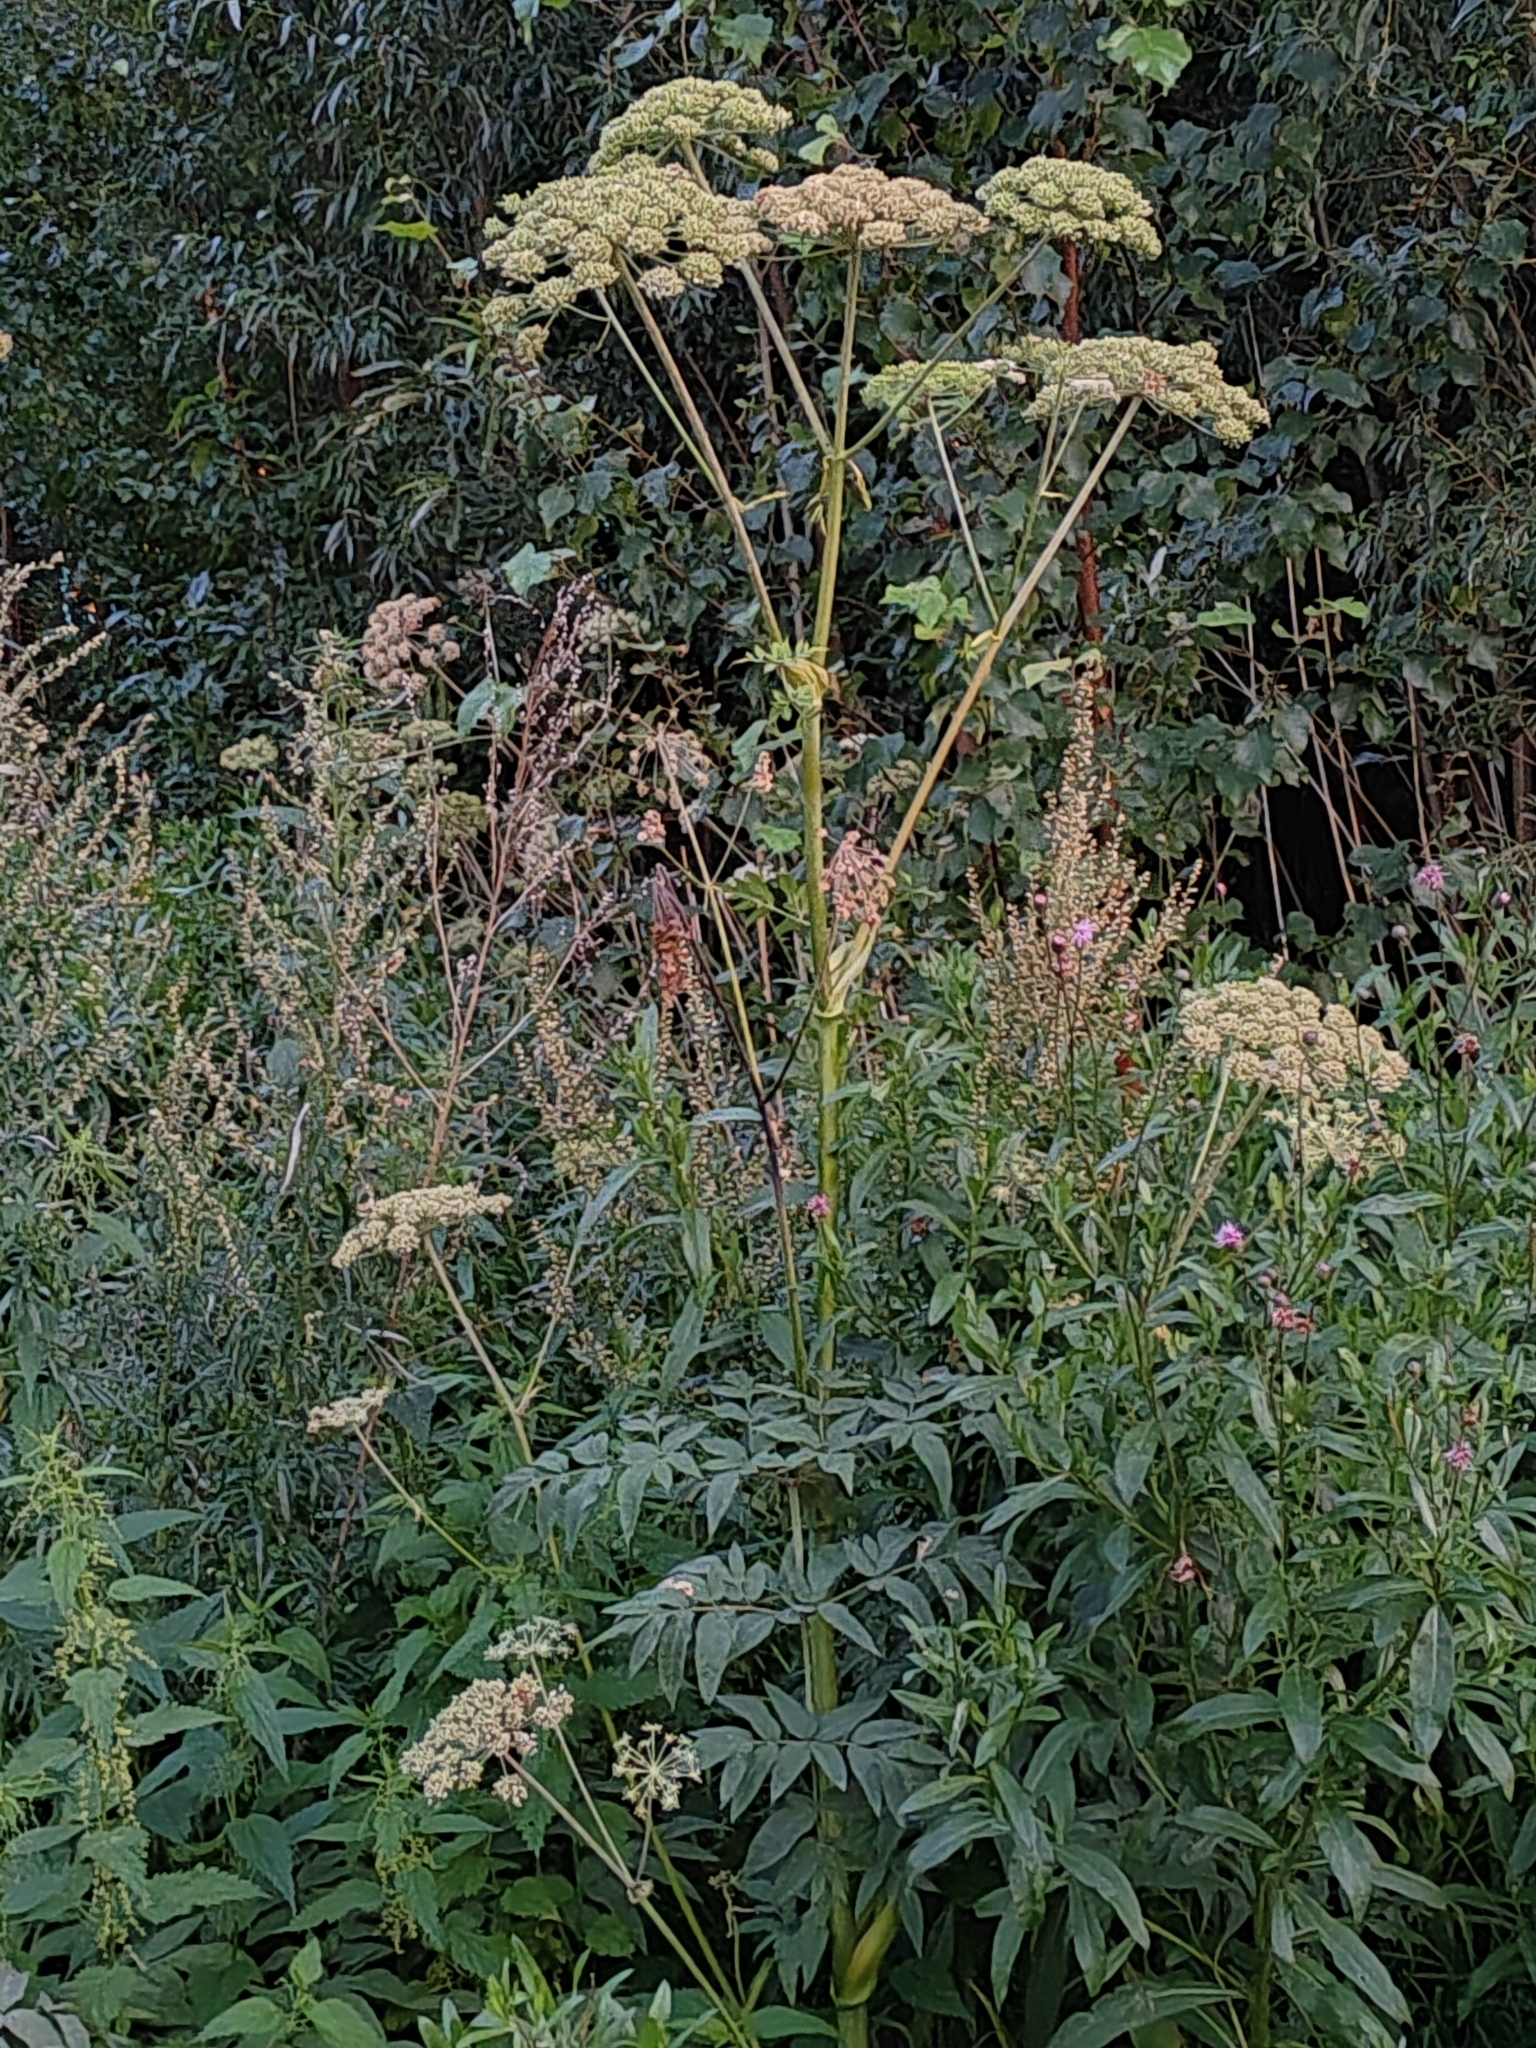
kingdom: Plantae
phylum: Tracheophyta
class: Magnoliopsida
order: Apiales
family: Apiaceae
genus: Angelica
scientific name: Angelica sylvestris
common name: Wild angelica
